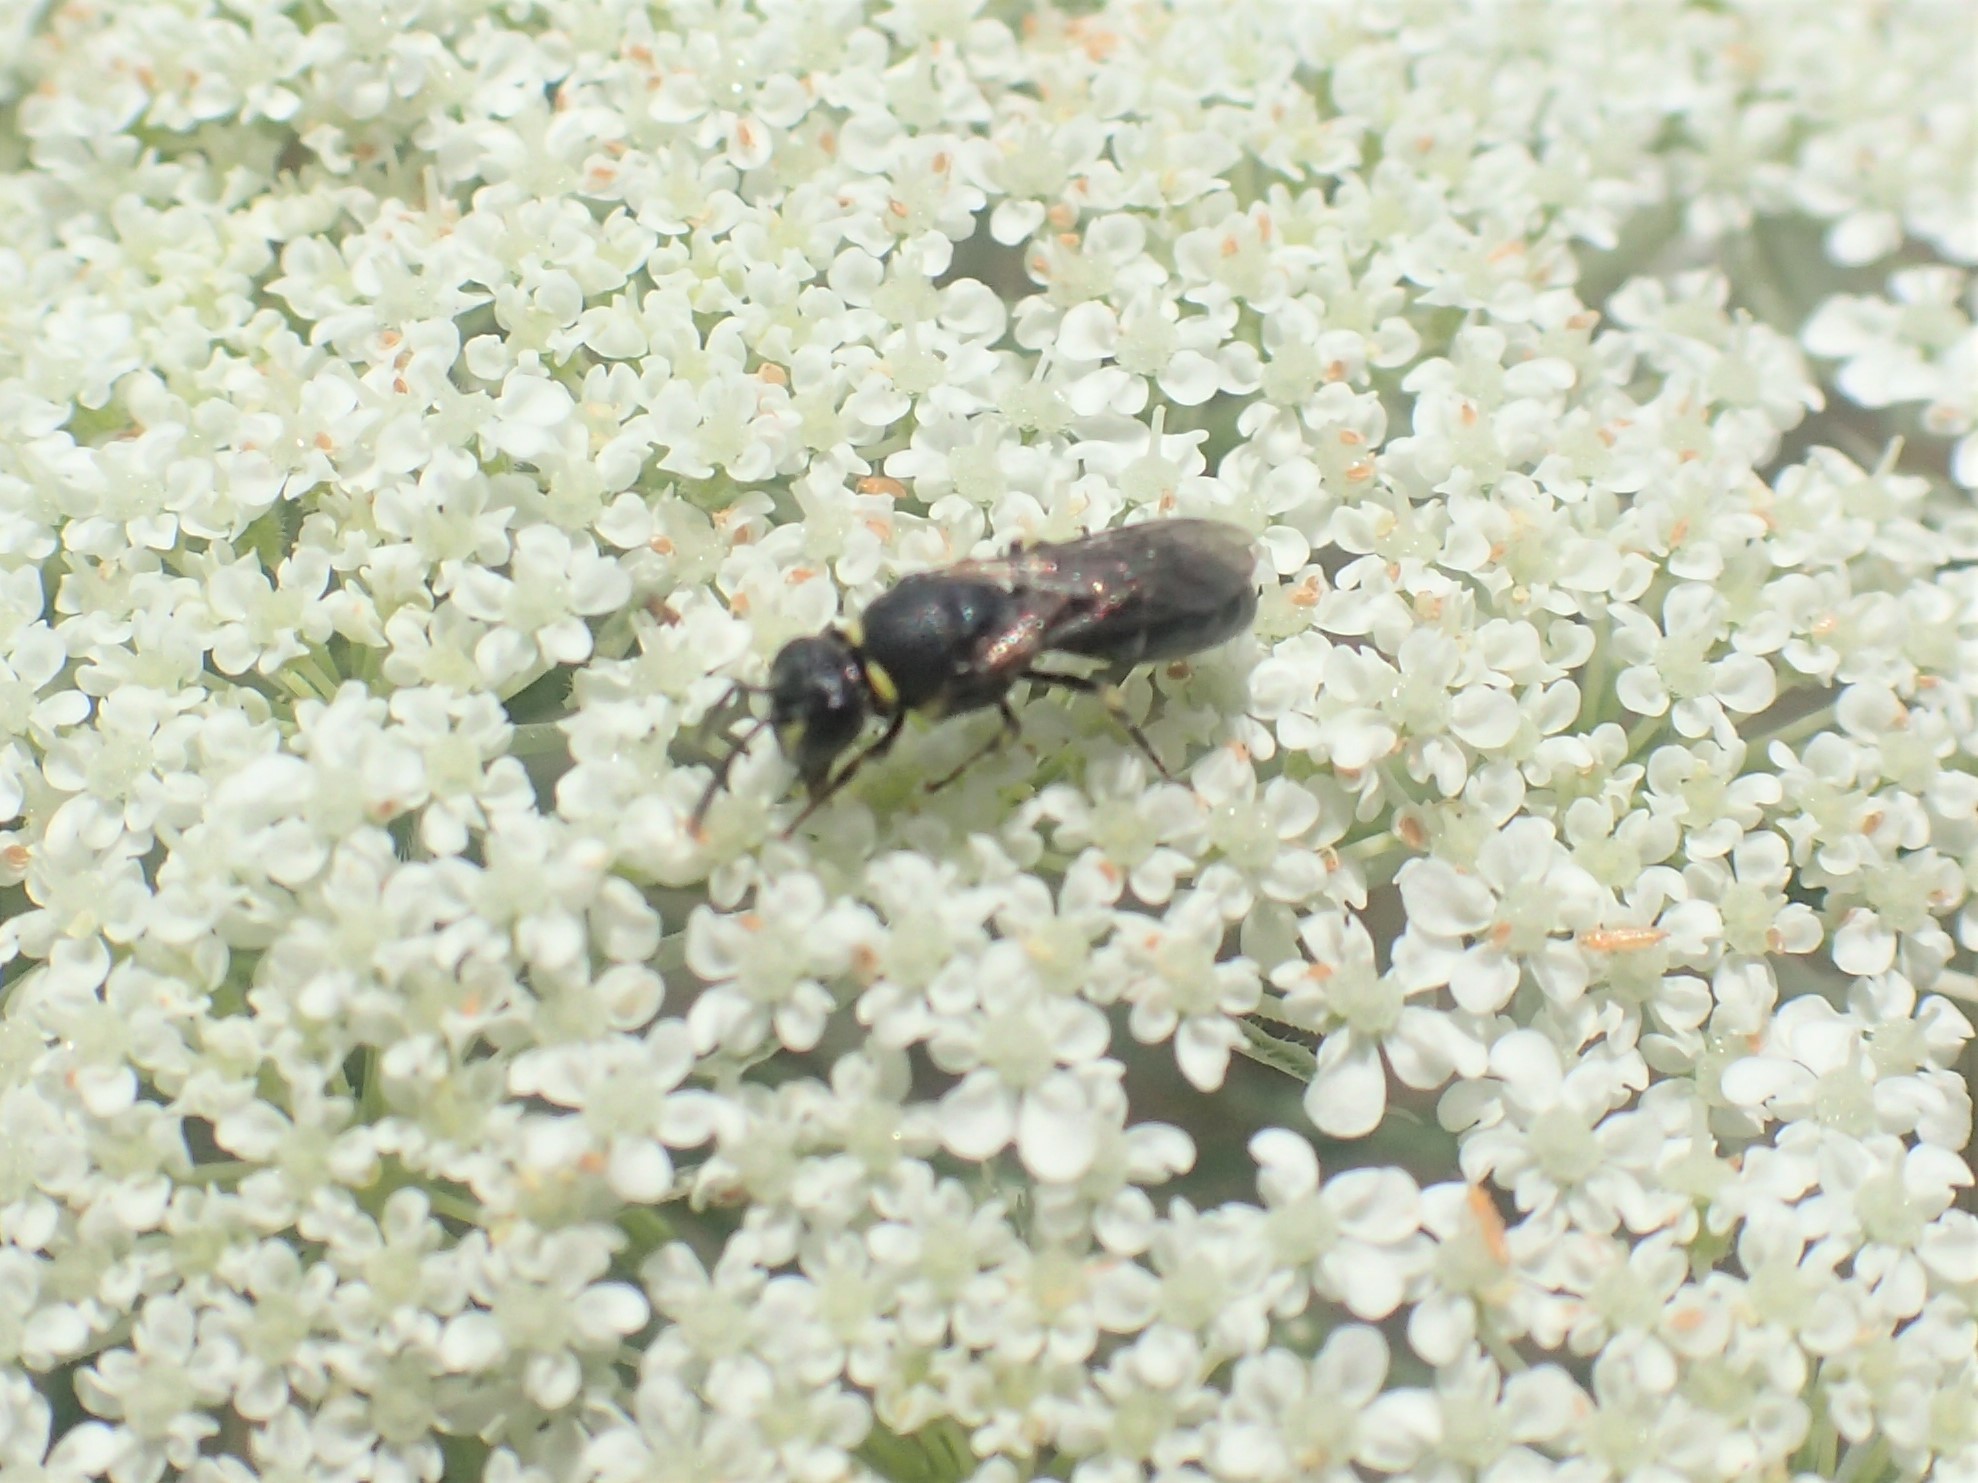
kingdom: Animalia
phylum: Arthropoda
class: Insecta
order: Hymenoptera
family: Colletidae
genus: Hylaeus
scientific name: Hylaeus modestus
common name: Yellow-faced bee
